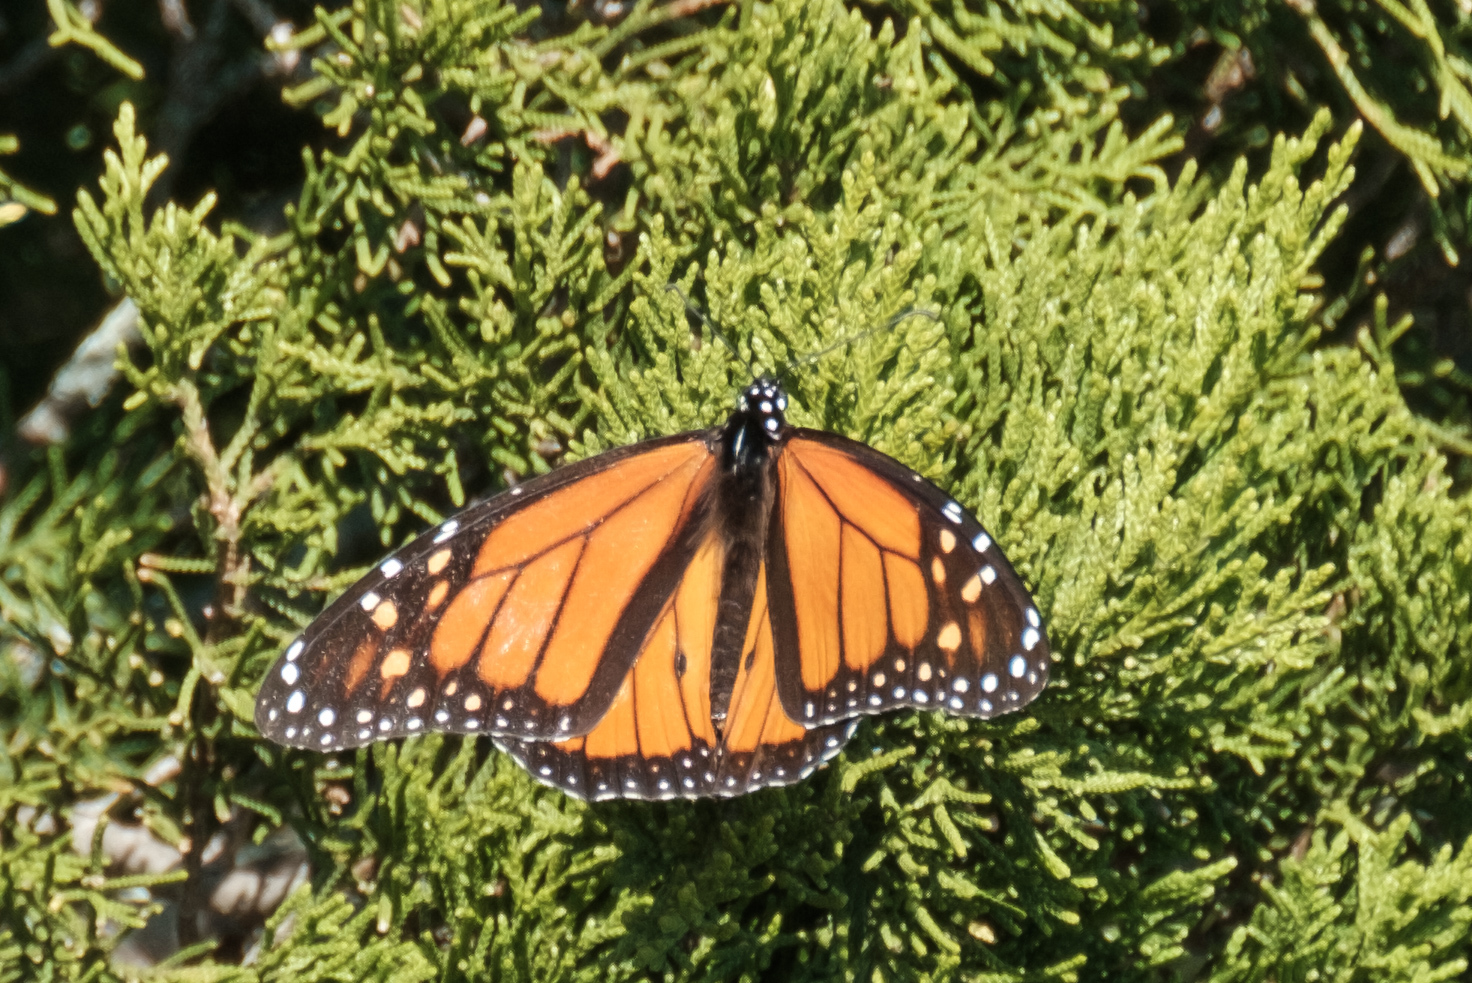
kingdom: Animalia
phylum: Arthropoda
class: Insecta
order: Lepidoptera
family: Nymphalidae
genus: Danaus
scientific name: Danaus plexippus
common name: Monarch
